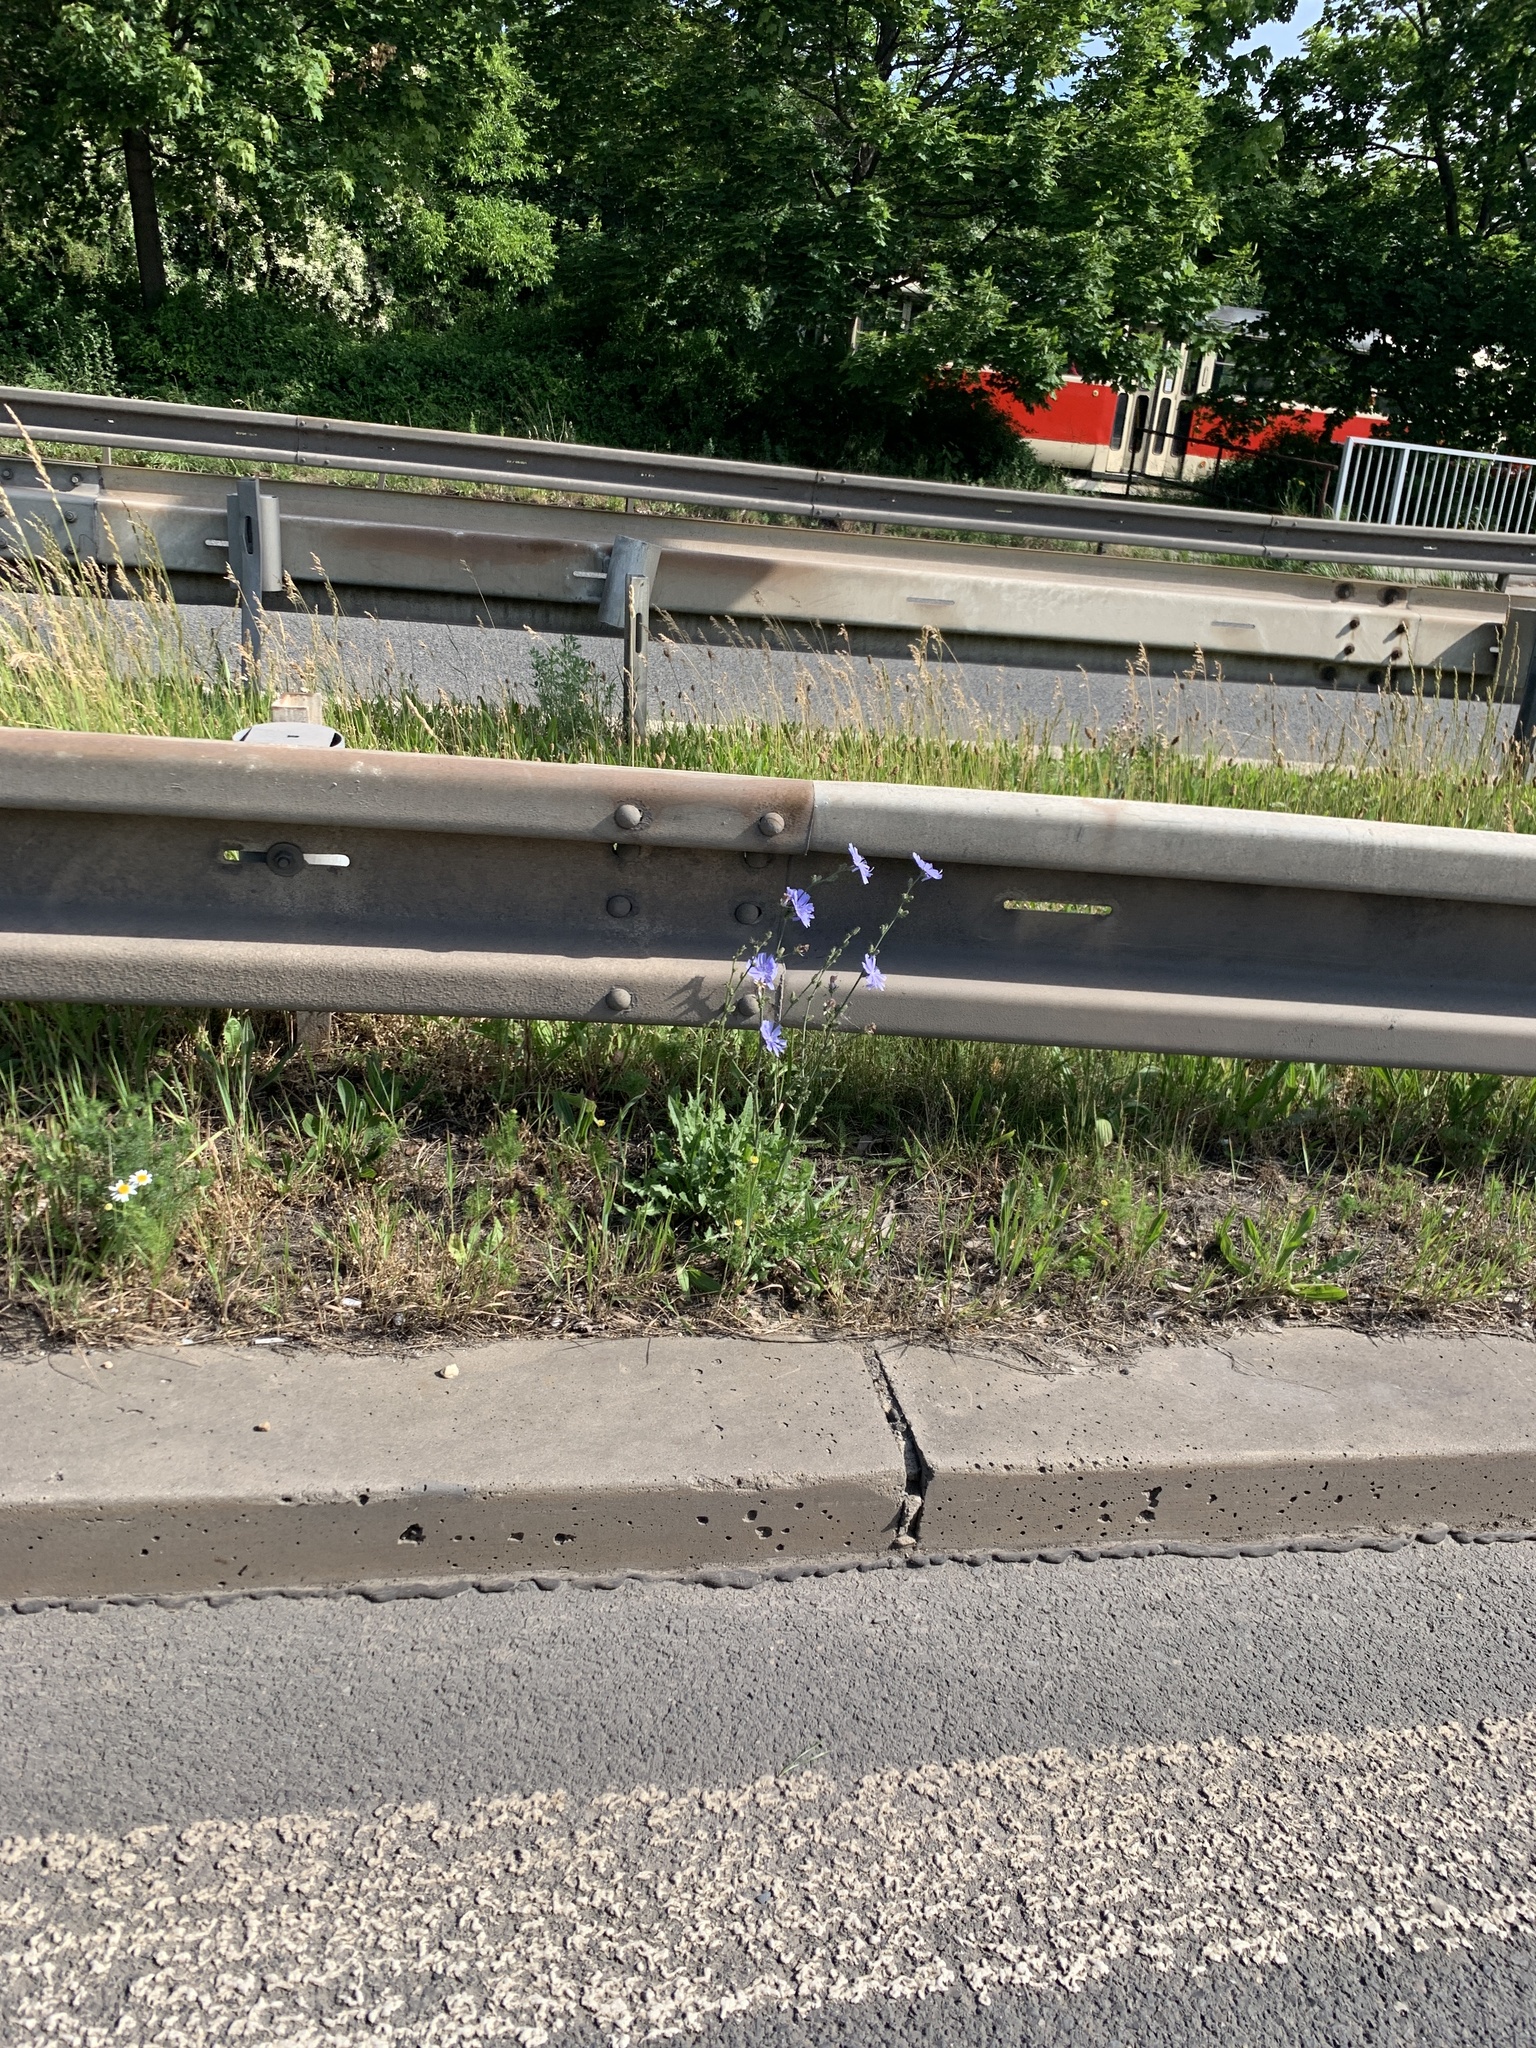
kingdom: Plantae
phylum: Tracheophyta
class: Magnoliopsida
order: Asterales
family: Asteraceae
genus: Cichorium
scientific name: Cichorium intybus
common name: Chicory
